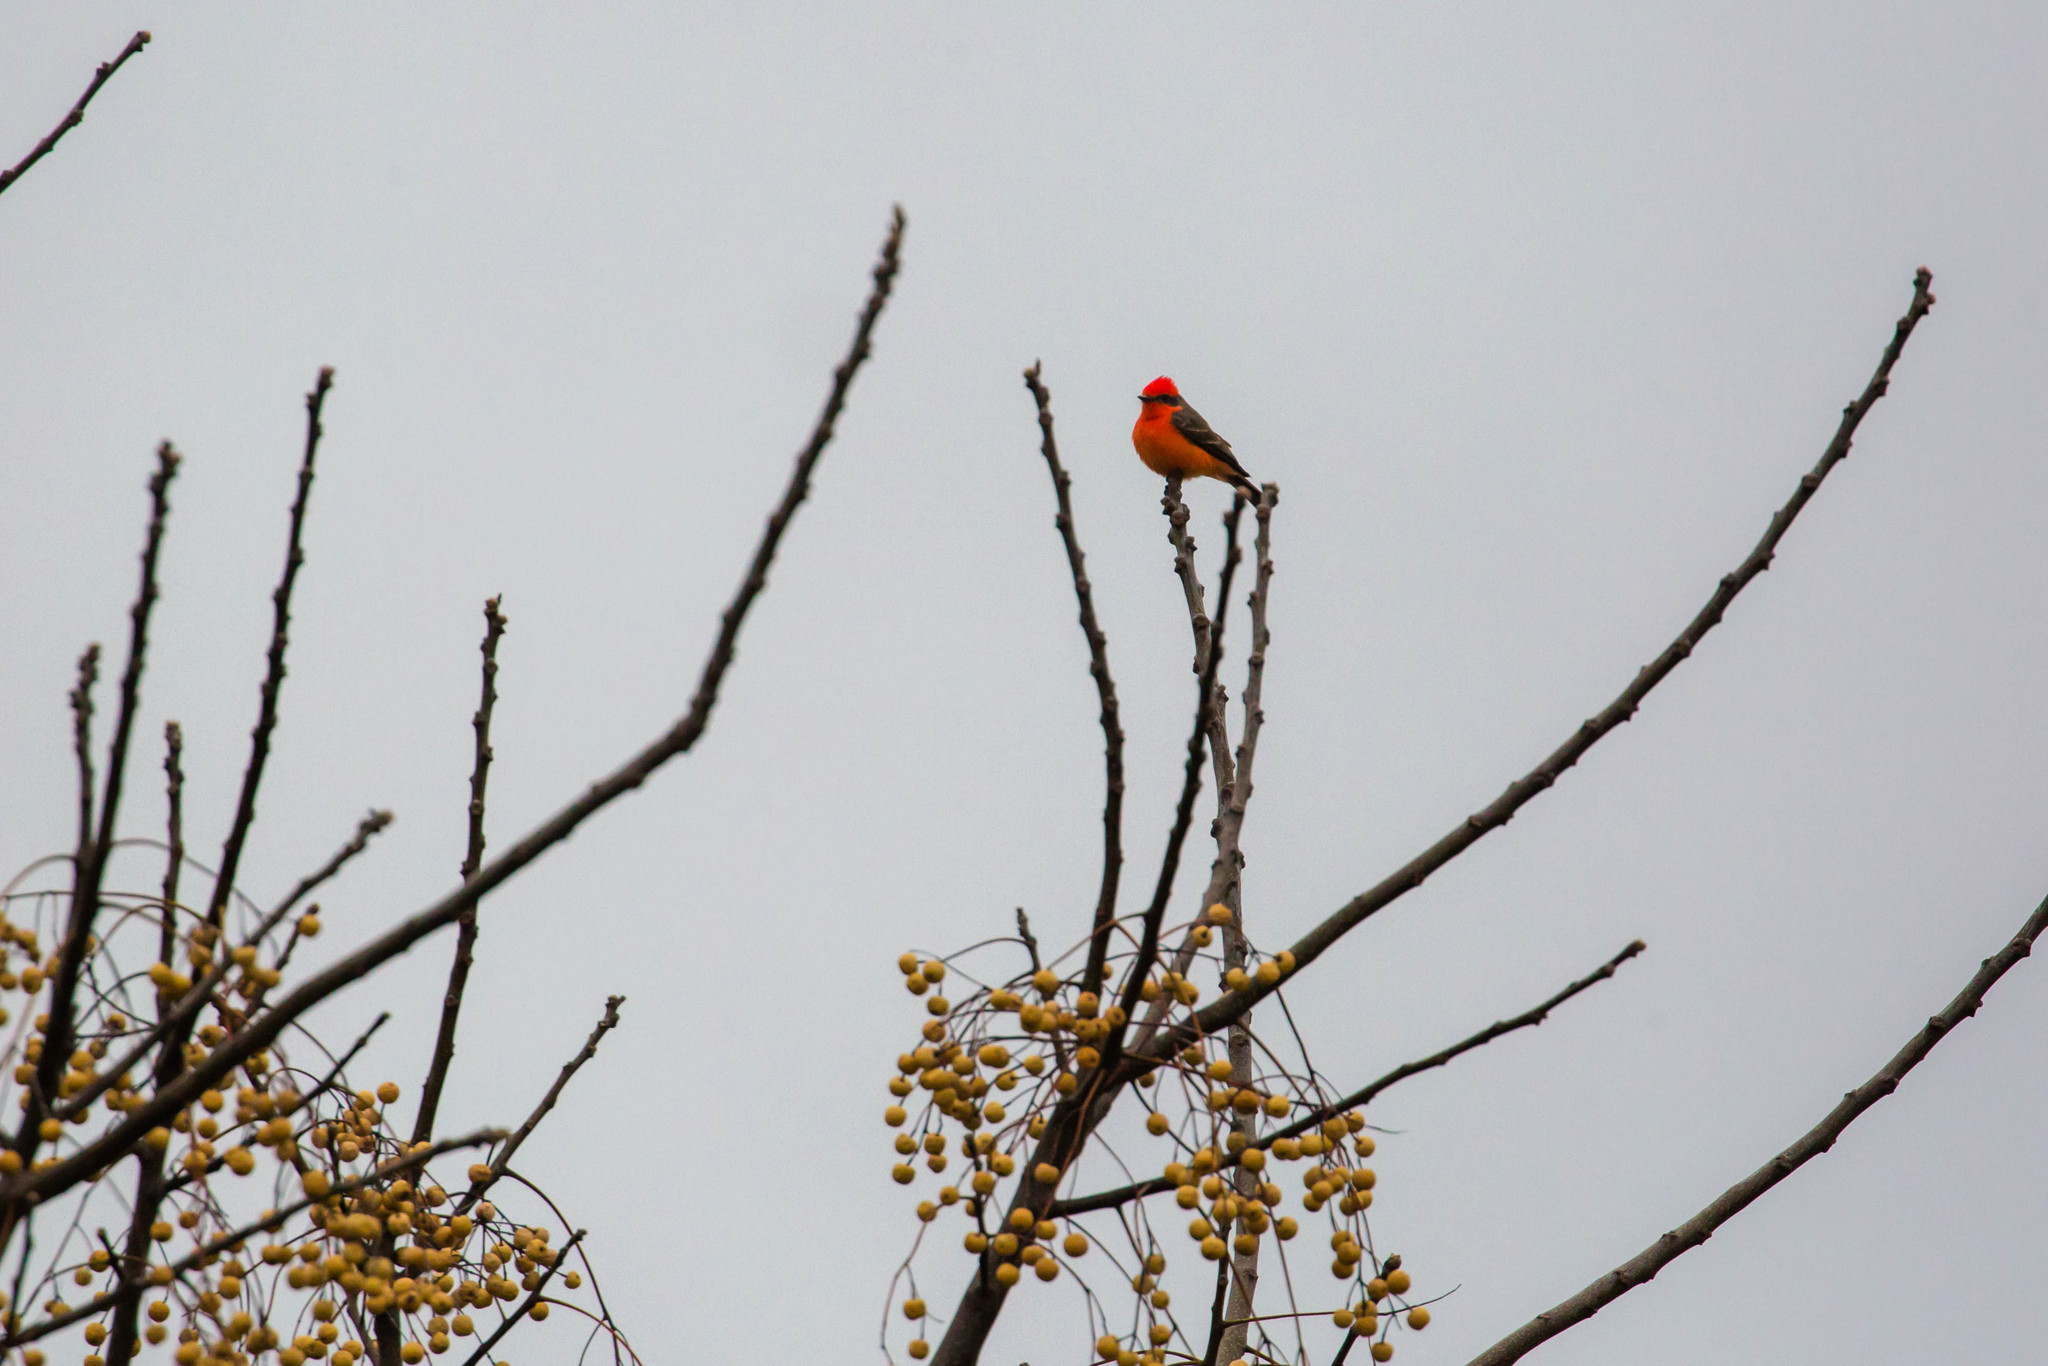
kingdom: Animalia
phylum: Chordata
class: Aves
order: Passeriformes
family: Tyrannidae
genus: Pyrocephalus
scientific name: Pyrocephalus rubinus
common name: Vermilion flycatcher
